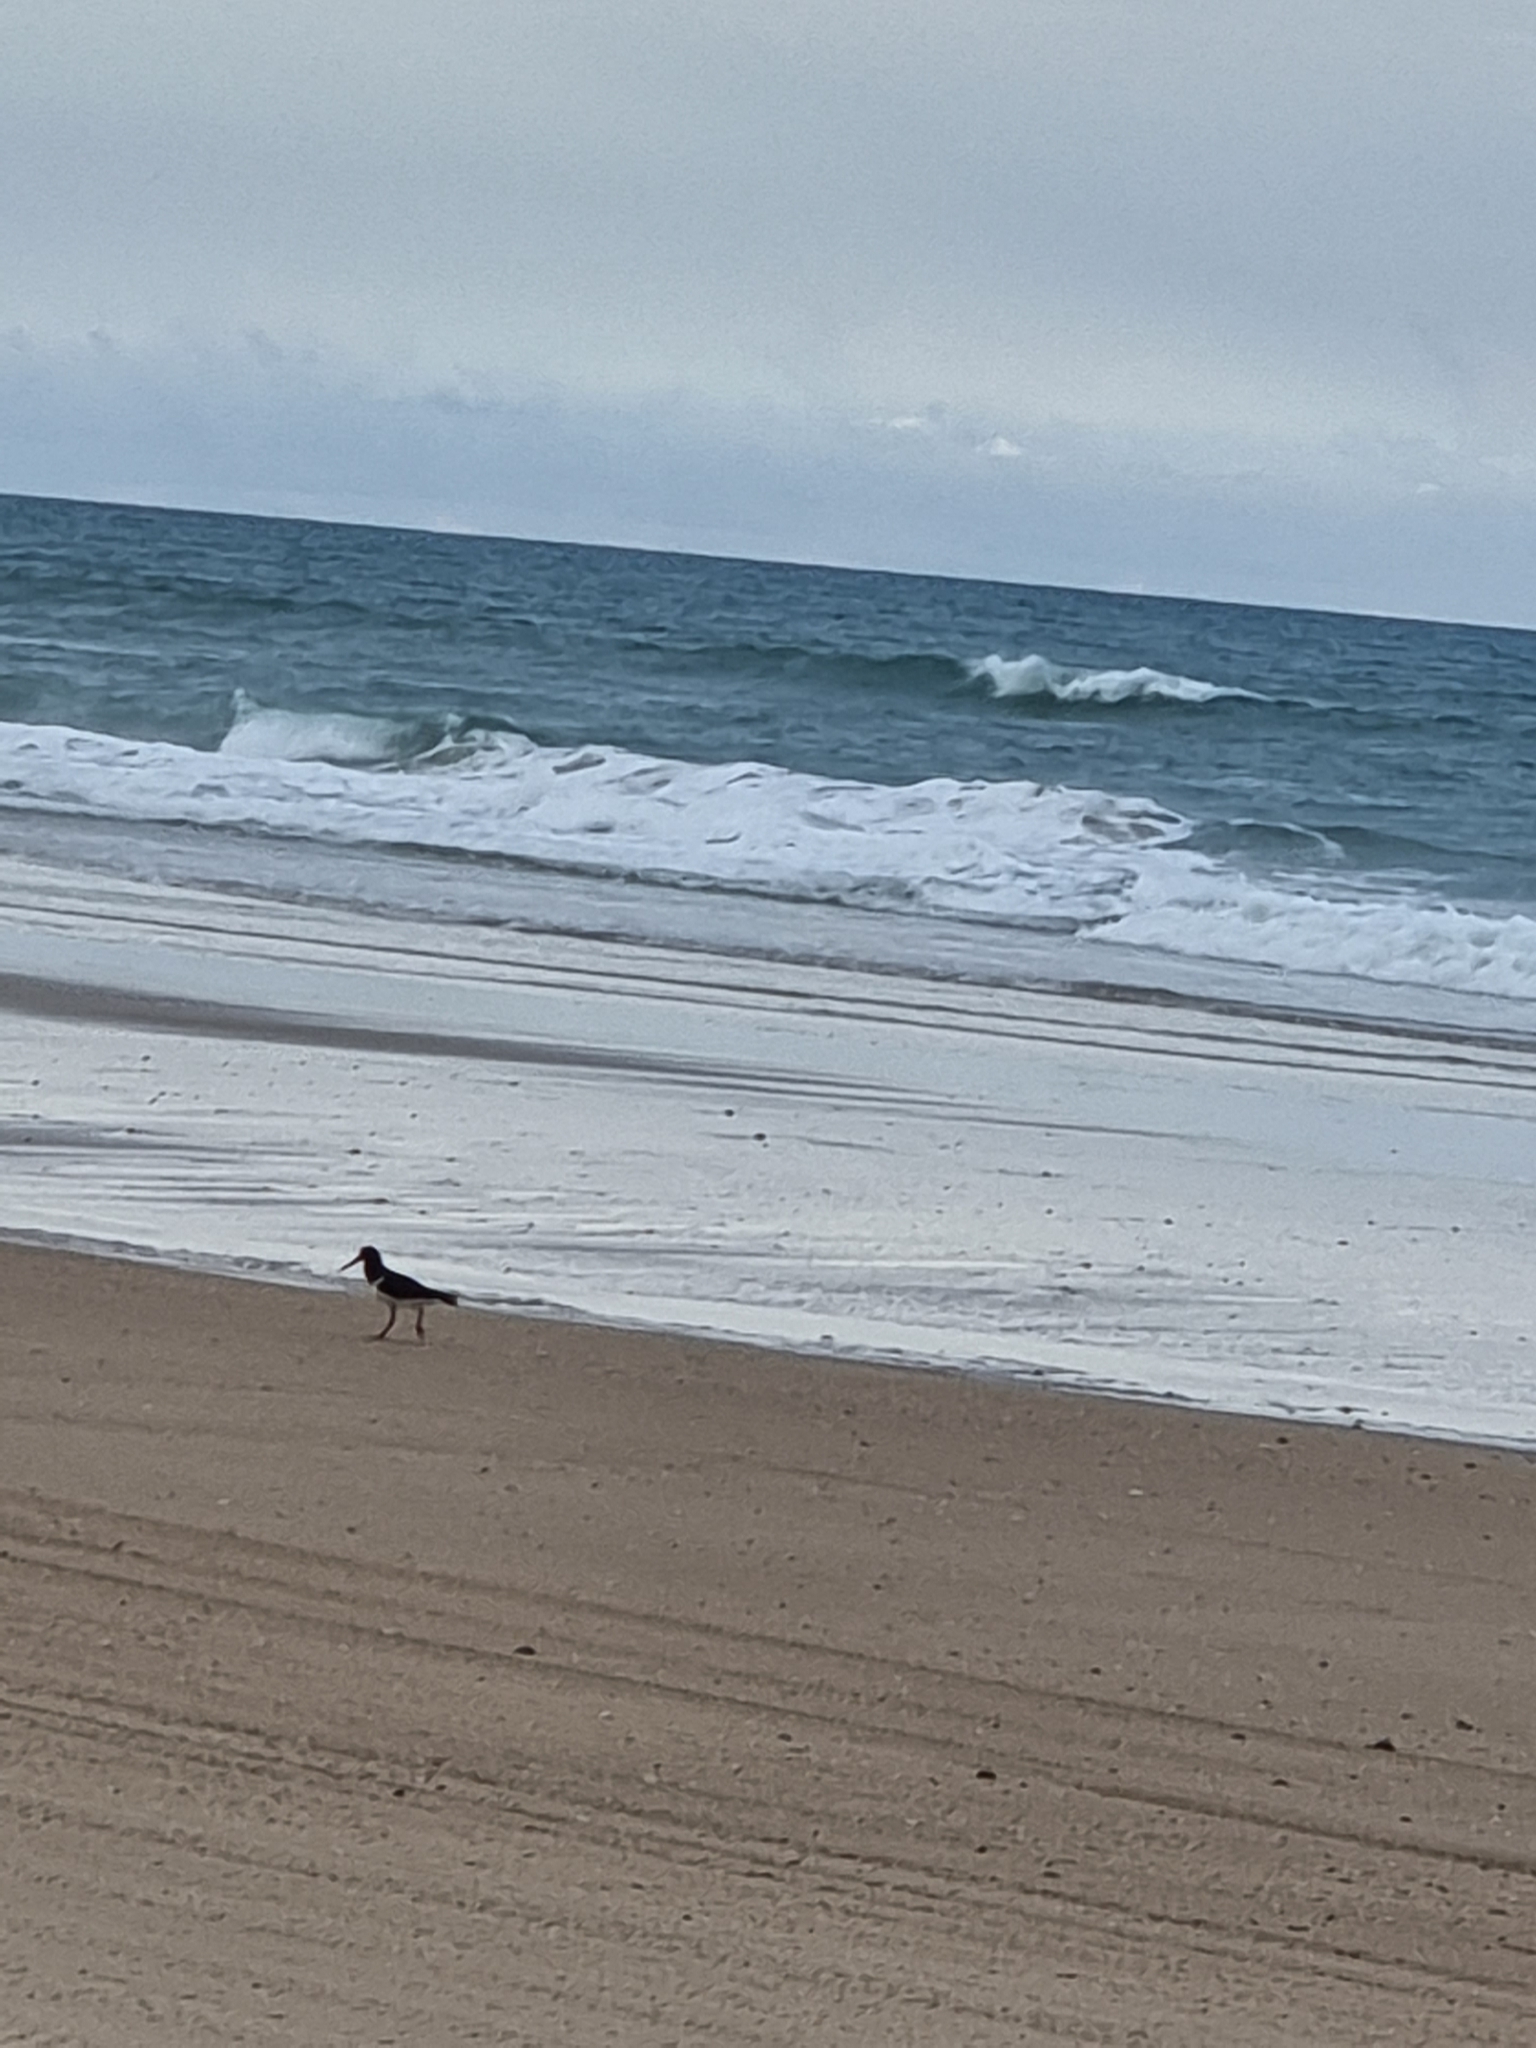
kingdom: Animalia
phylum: Chordata
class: Aves
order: Charadriiformes
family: Haematopodidae
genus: Haematopus
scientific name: Haematopus longirostris
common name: Pied oystercatcher
